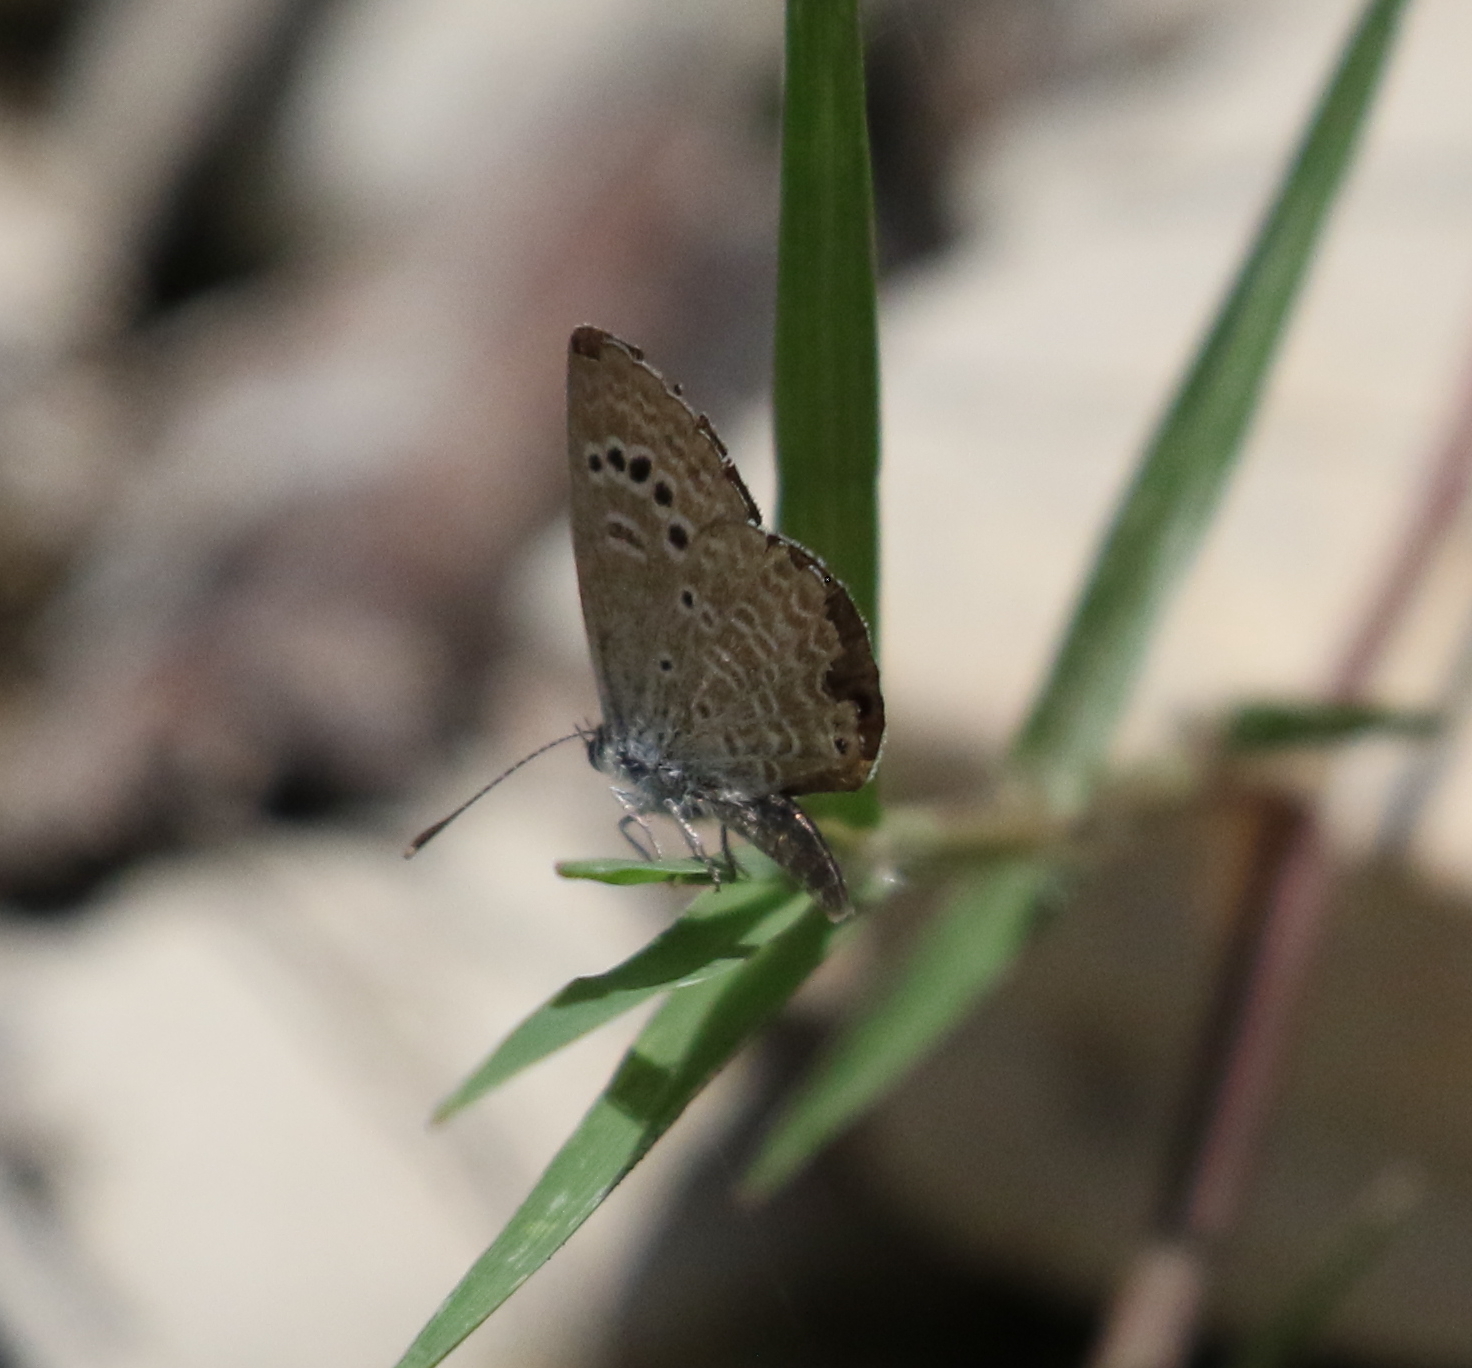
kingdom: Animalia
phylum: Arthropoda
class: Insecta
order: Lepidoptera
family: Lycaenidae
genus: Echinargus
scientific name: Echinargus isola
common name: Reakirt's blue
